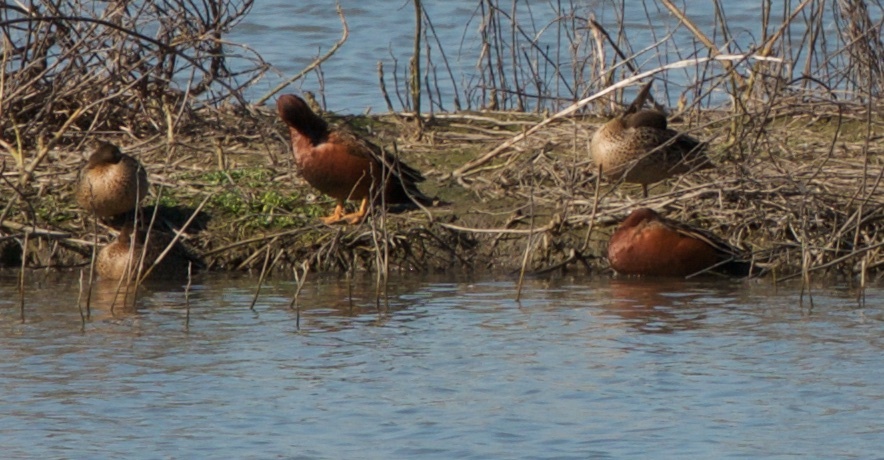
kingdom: Animalia
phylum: Chordata
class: Aves
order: Anseriformes
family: Anatidae
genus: Spatula
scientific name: Spatula cyanoptera
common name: Cinnamon teal
